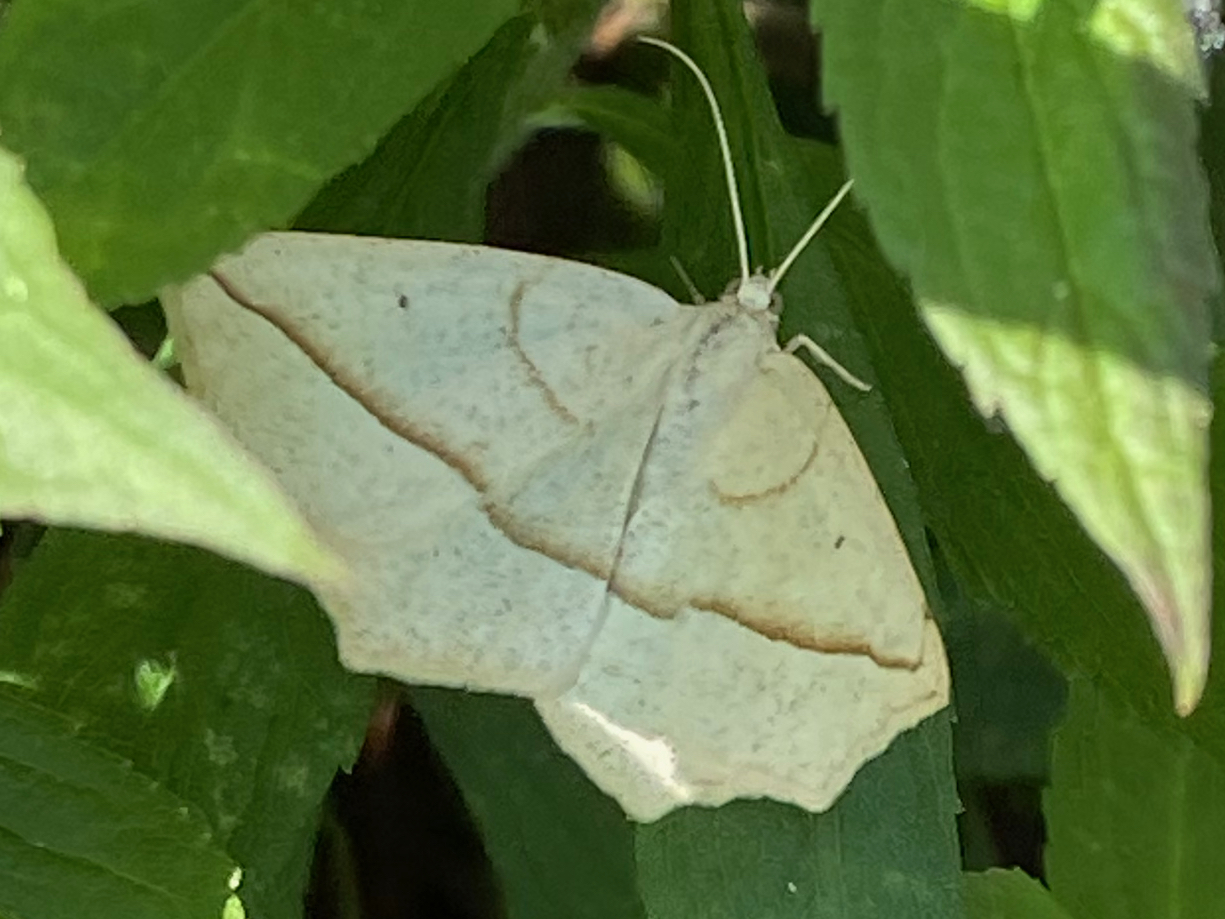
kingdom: Animalia
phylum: Arthropoda
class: Insecta
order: Lepidoptera
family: Geometridae
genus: Eusarca
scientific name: Eusarca confusaria
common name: Confused eusarca
